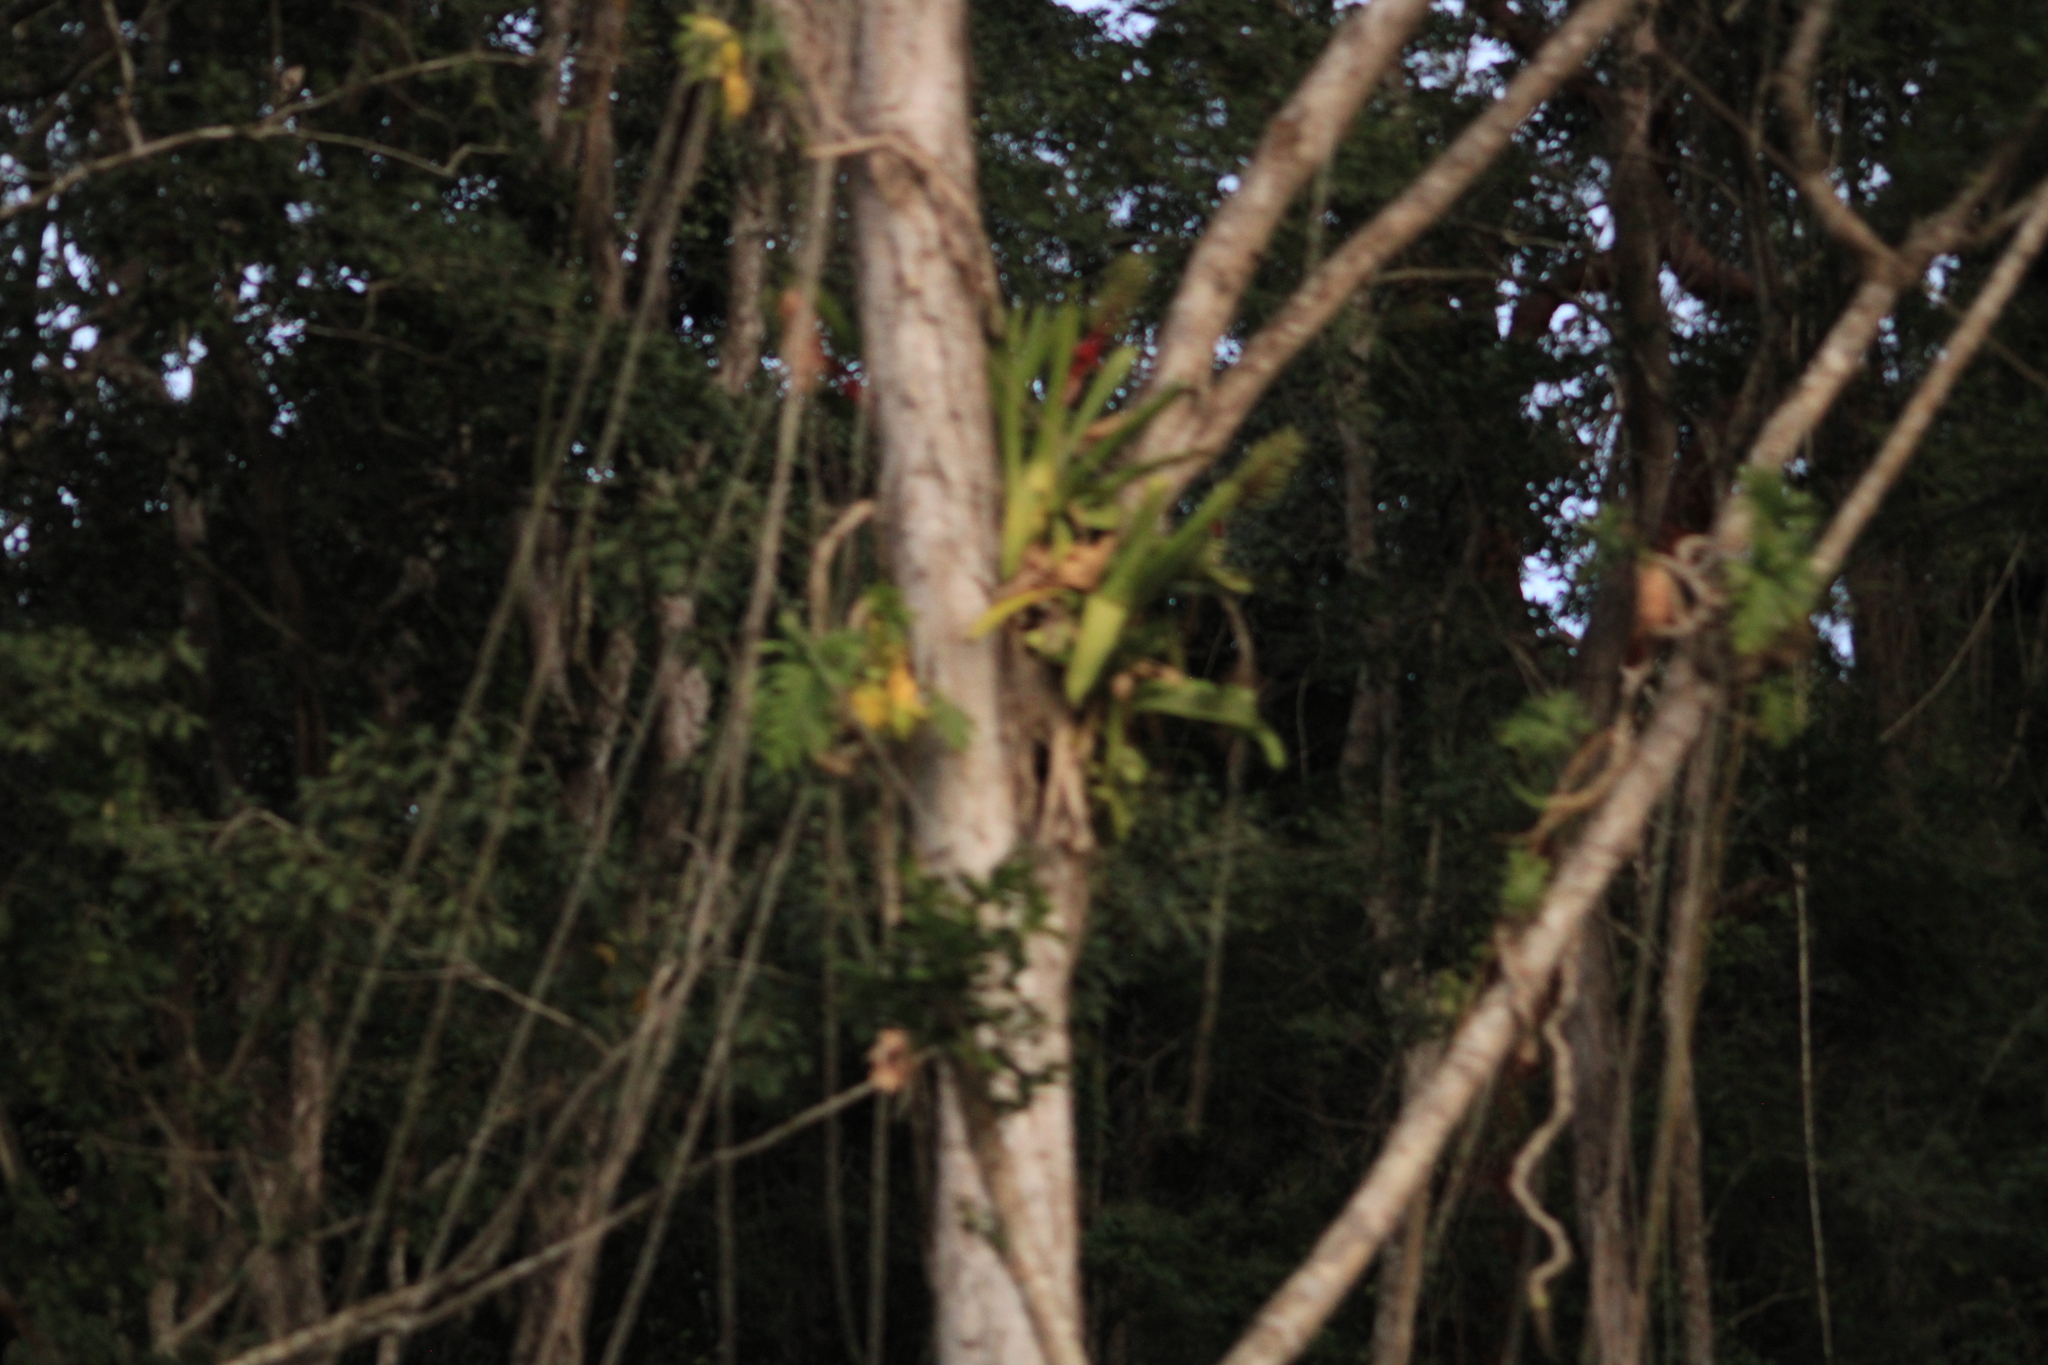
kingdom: Plantae
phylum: Tracheophyta
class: Liliopsida
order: Poales
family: Bromeliaceae
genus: Aechmea
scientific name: Aechmea bracteata
